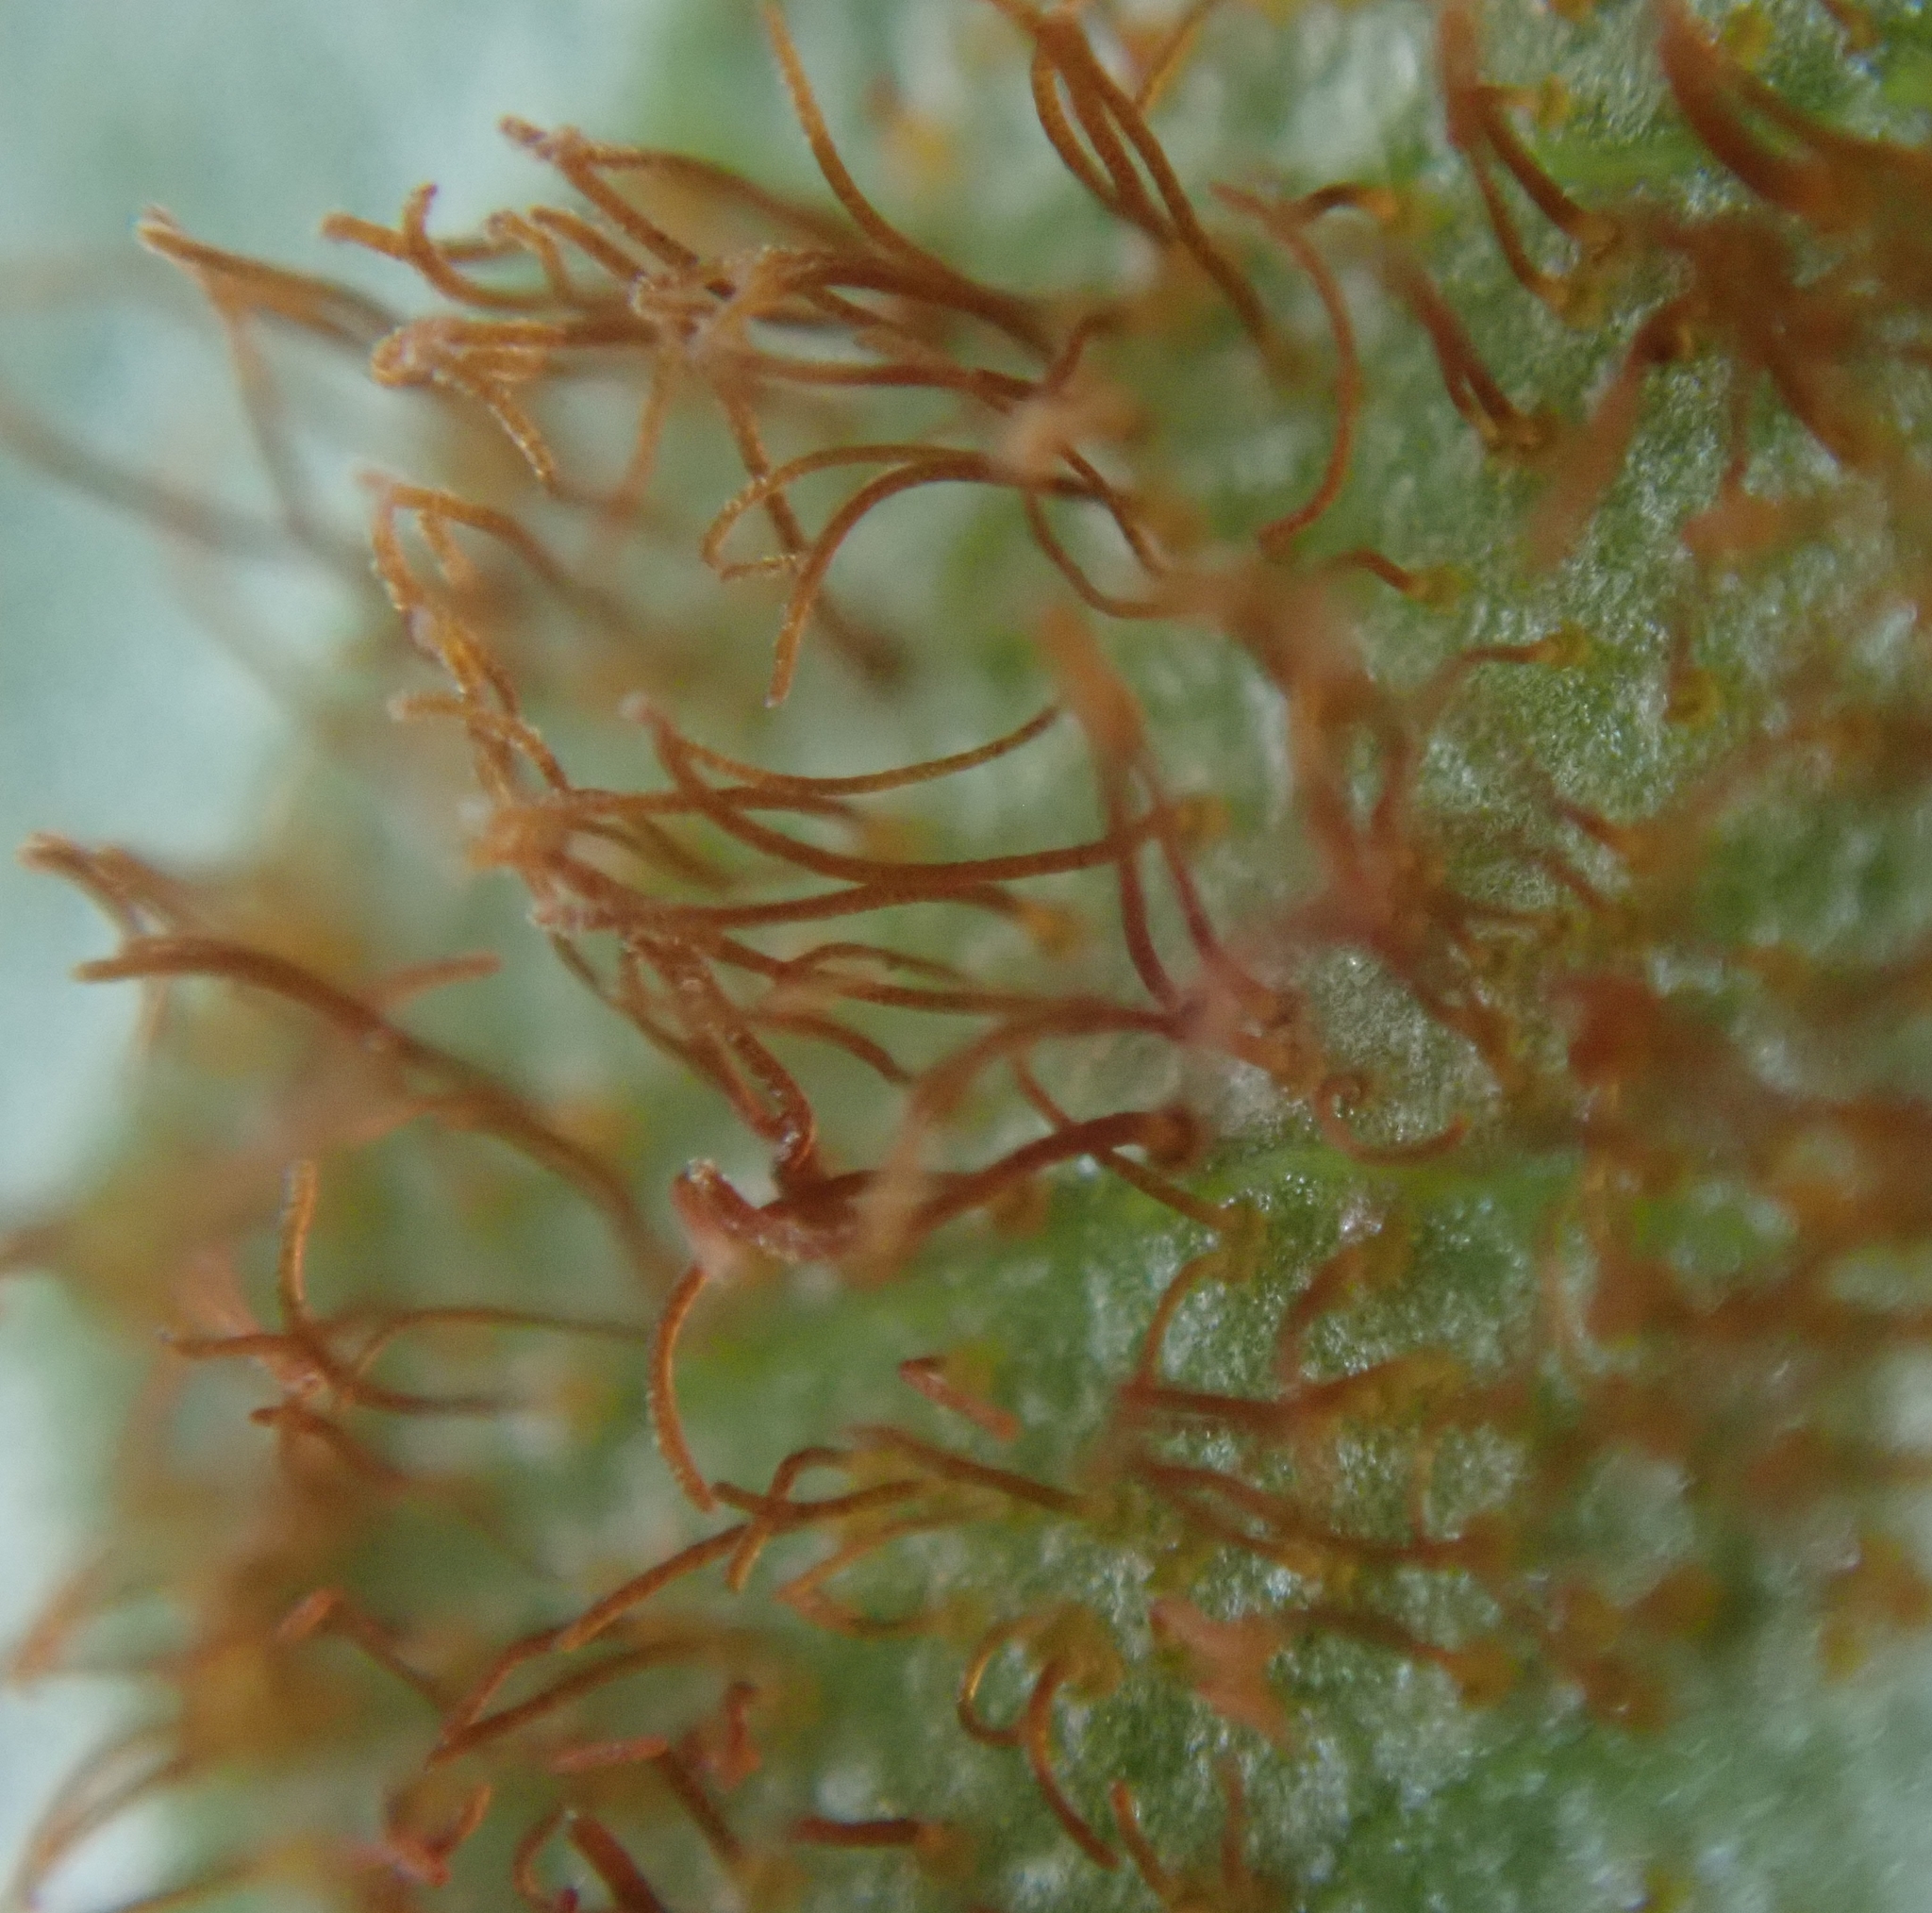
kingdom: Fungi
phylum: Basidiomycota
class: Pucciniomycetes
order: Pucciniales
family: Cronartiaceae
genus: Cronartium
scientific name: Cronartium pini
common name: Scots pine blister rust
